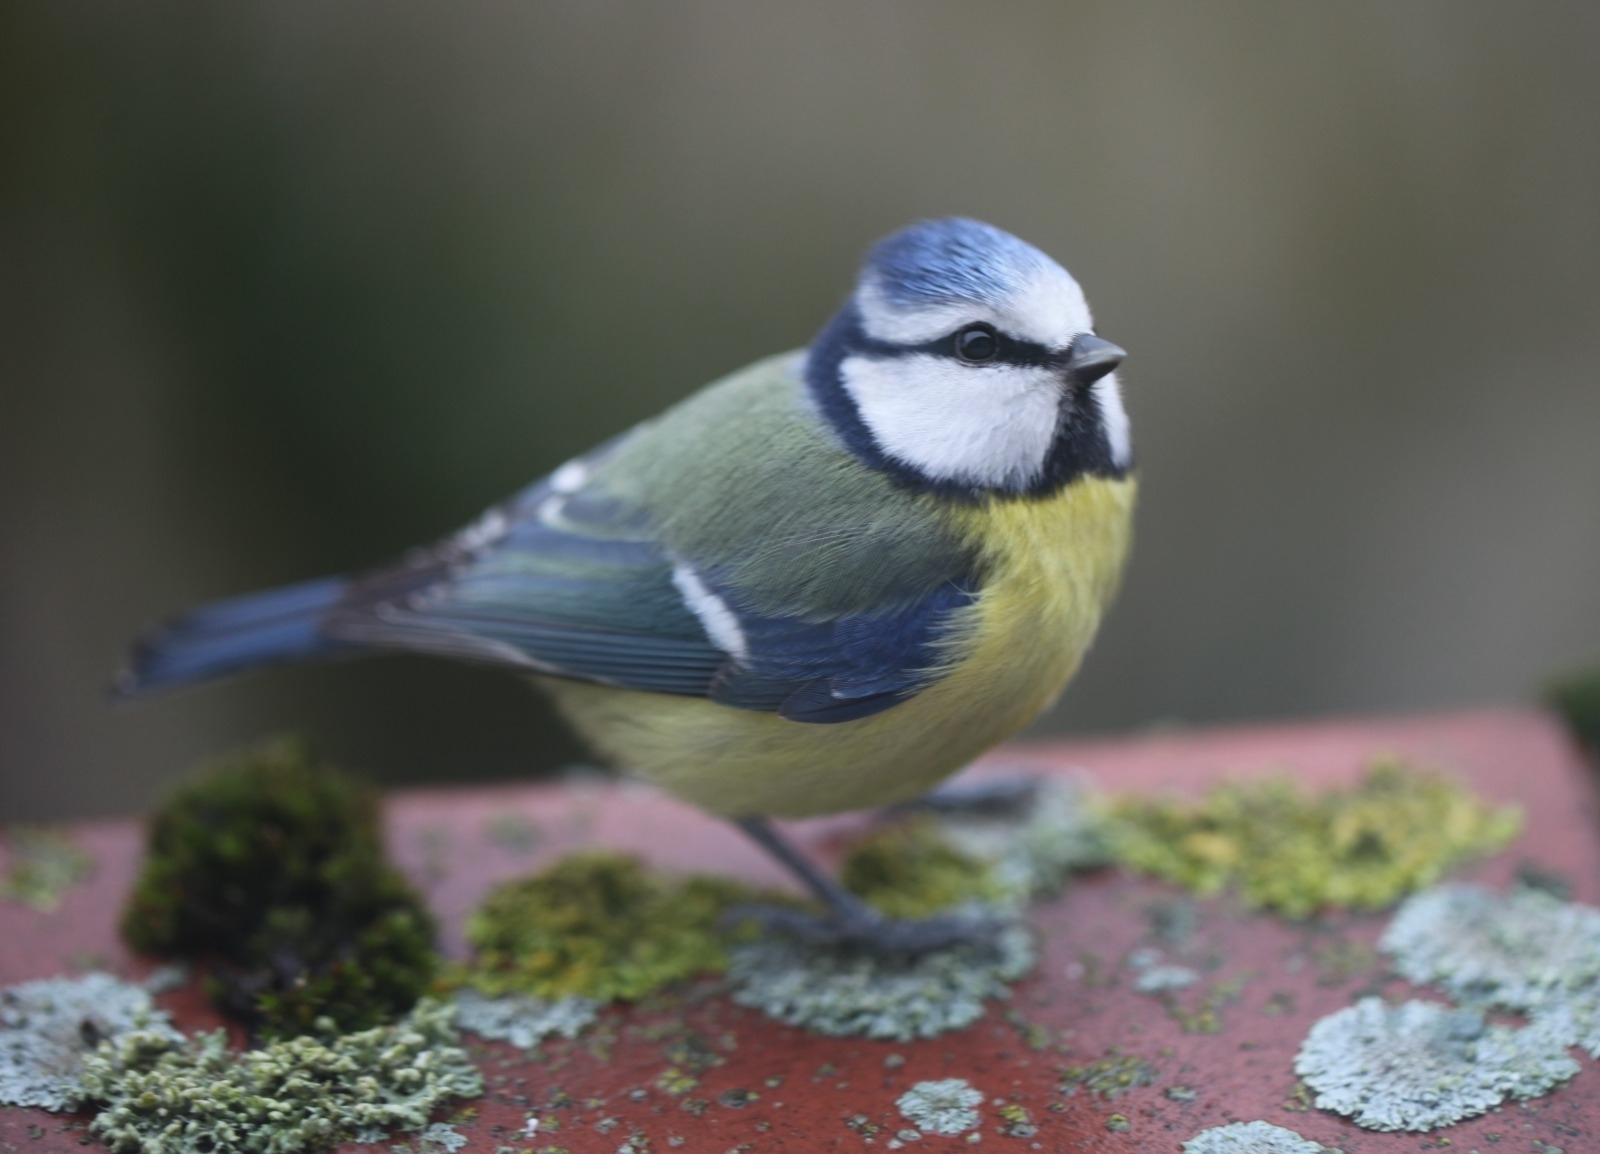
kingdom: Animalia
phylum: Chordata
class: Aves
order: Passeriformes
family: Paridae
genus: Cyanistes
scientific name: Cyanistes caeruleus
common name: Eurasian blue tit
